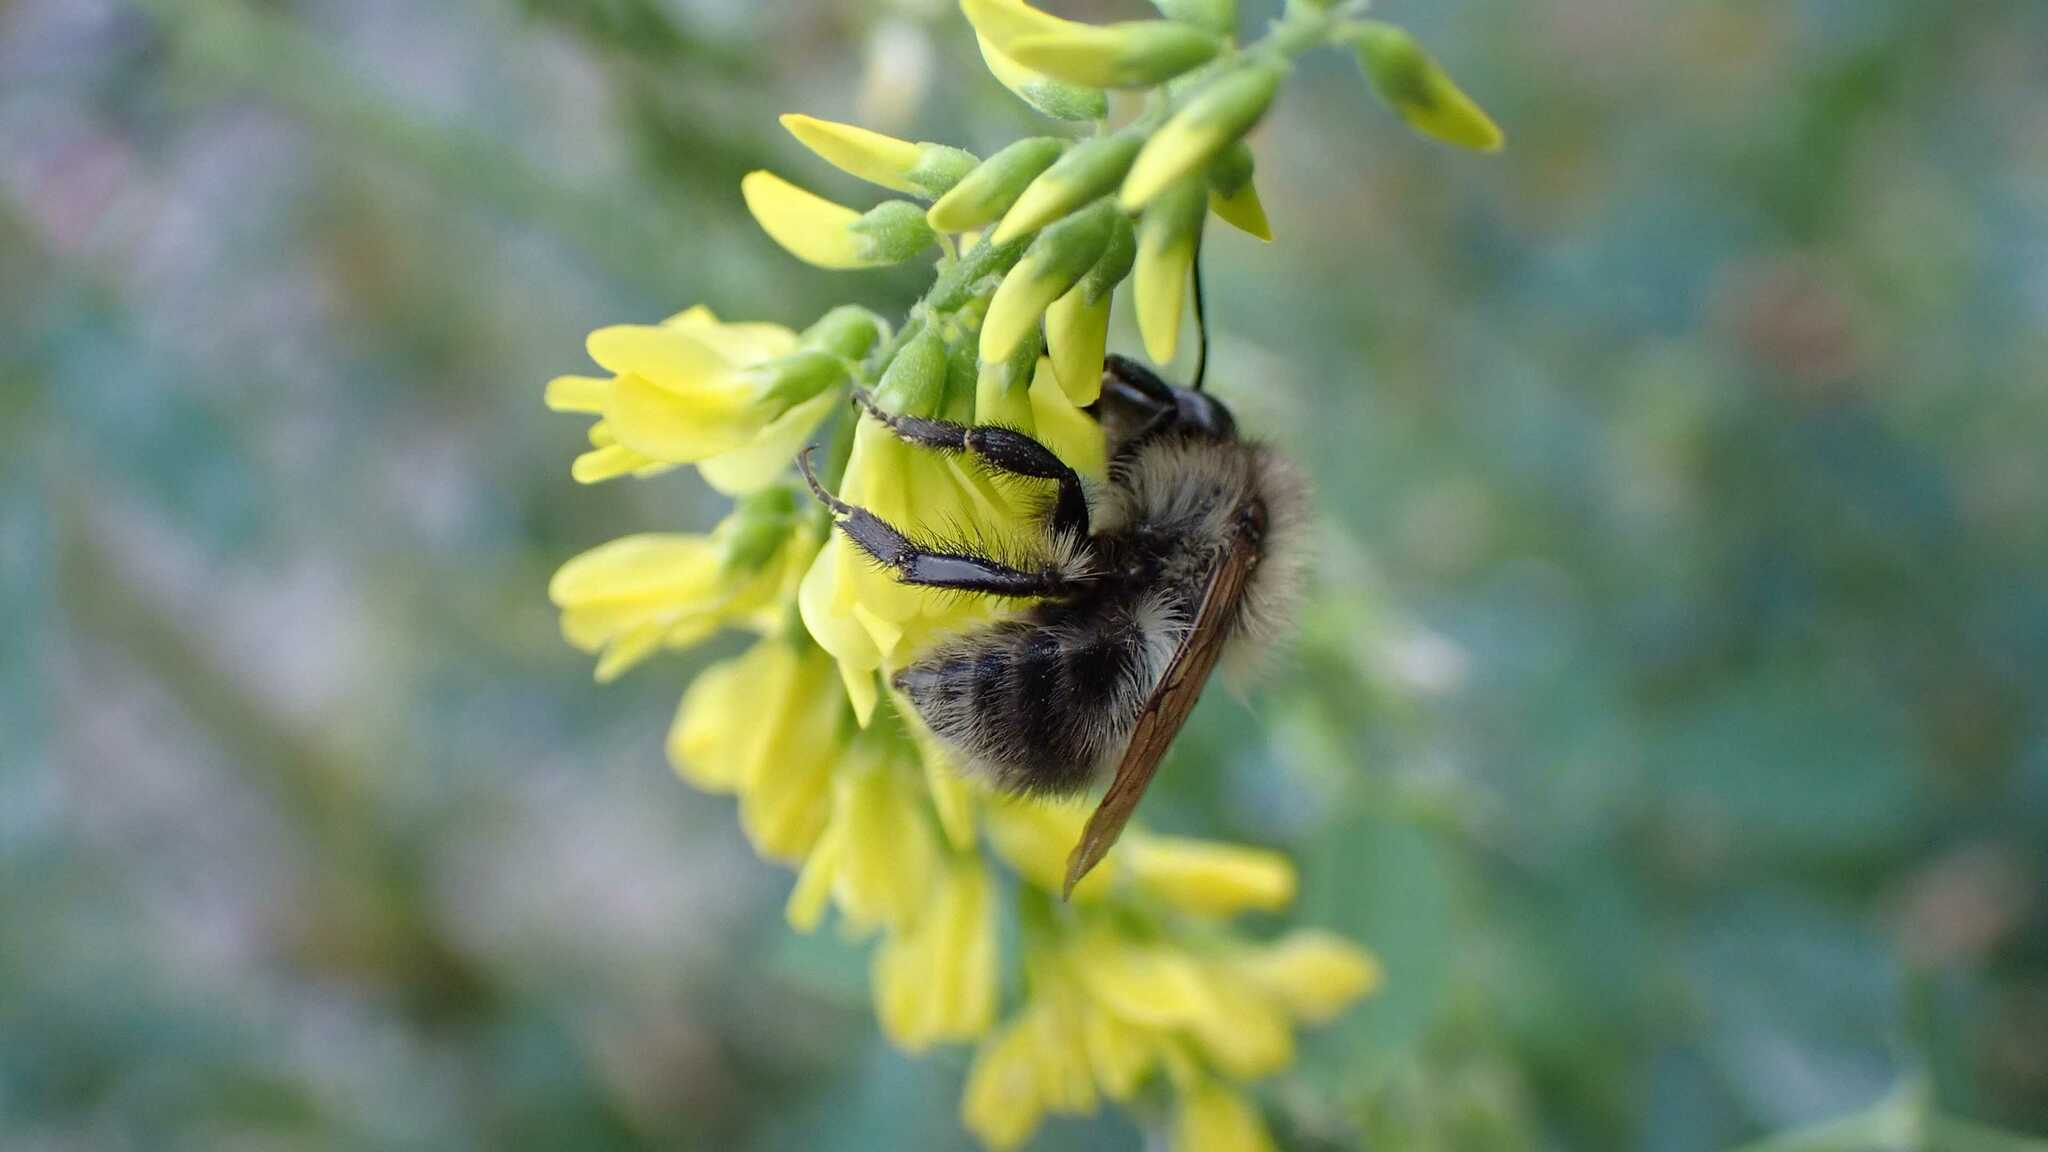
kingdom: Animalia
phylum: Arthropoda
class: Insecta
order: Hymenoptera
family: Apidae
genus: Bombus
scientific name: Bombus pascuorum
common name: Common carder bee
